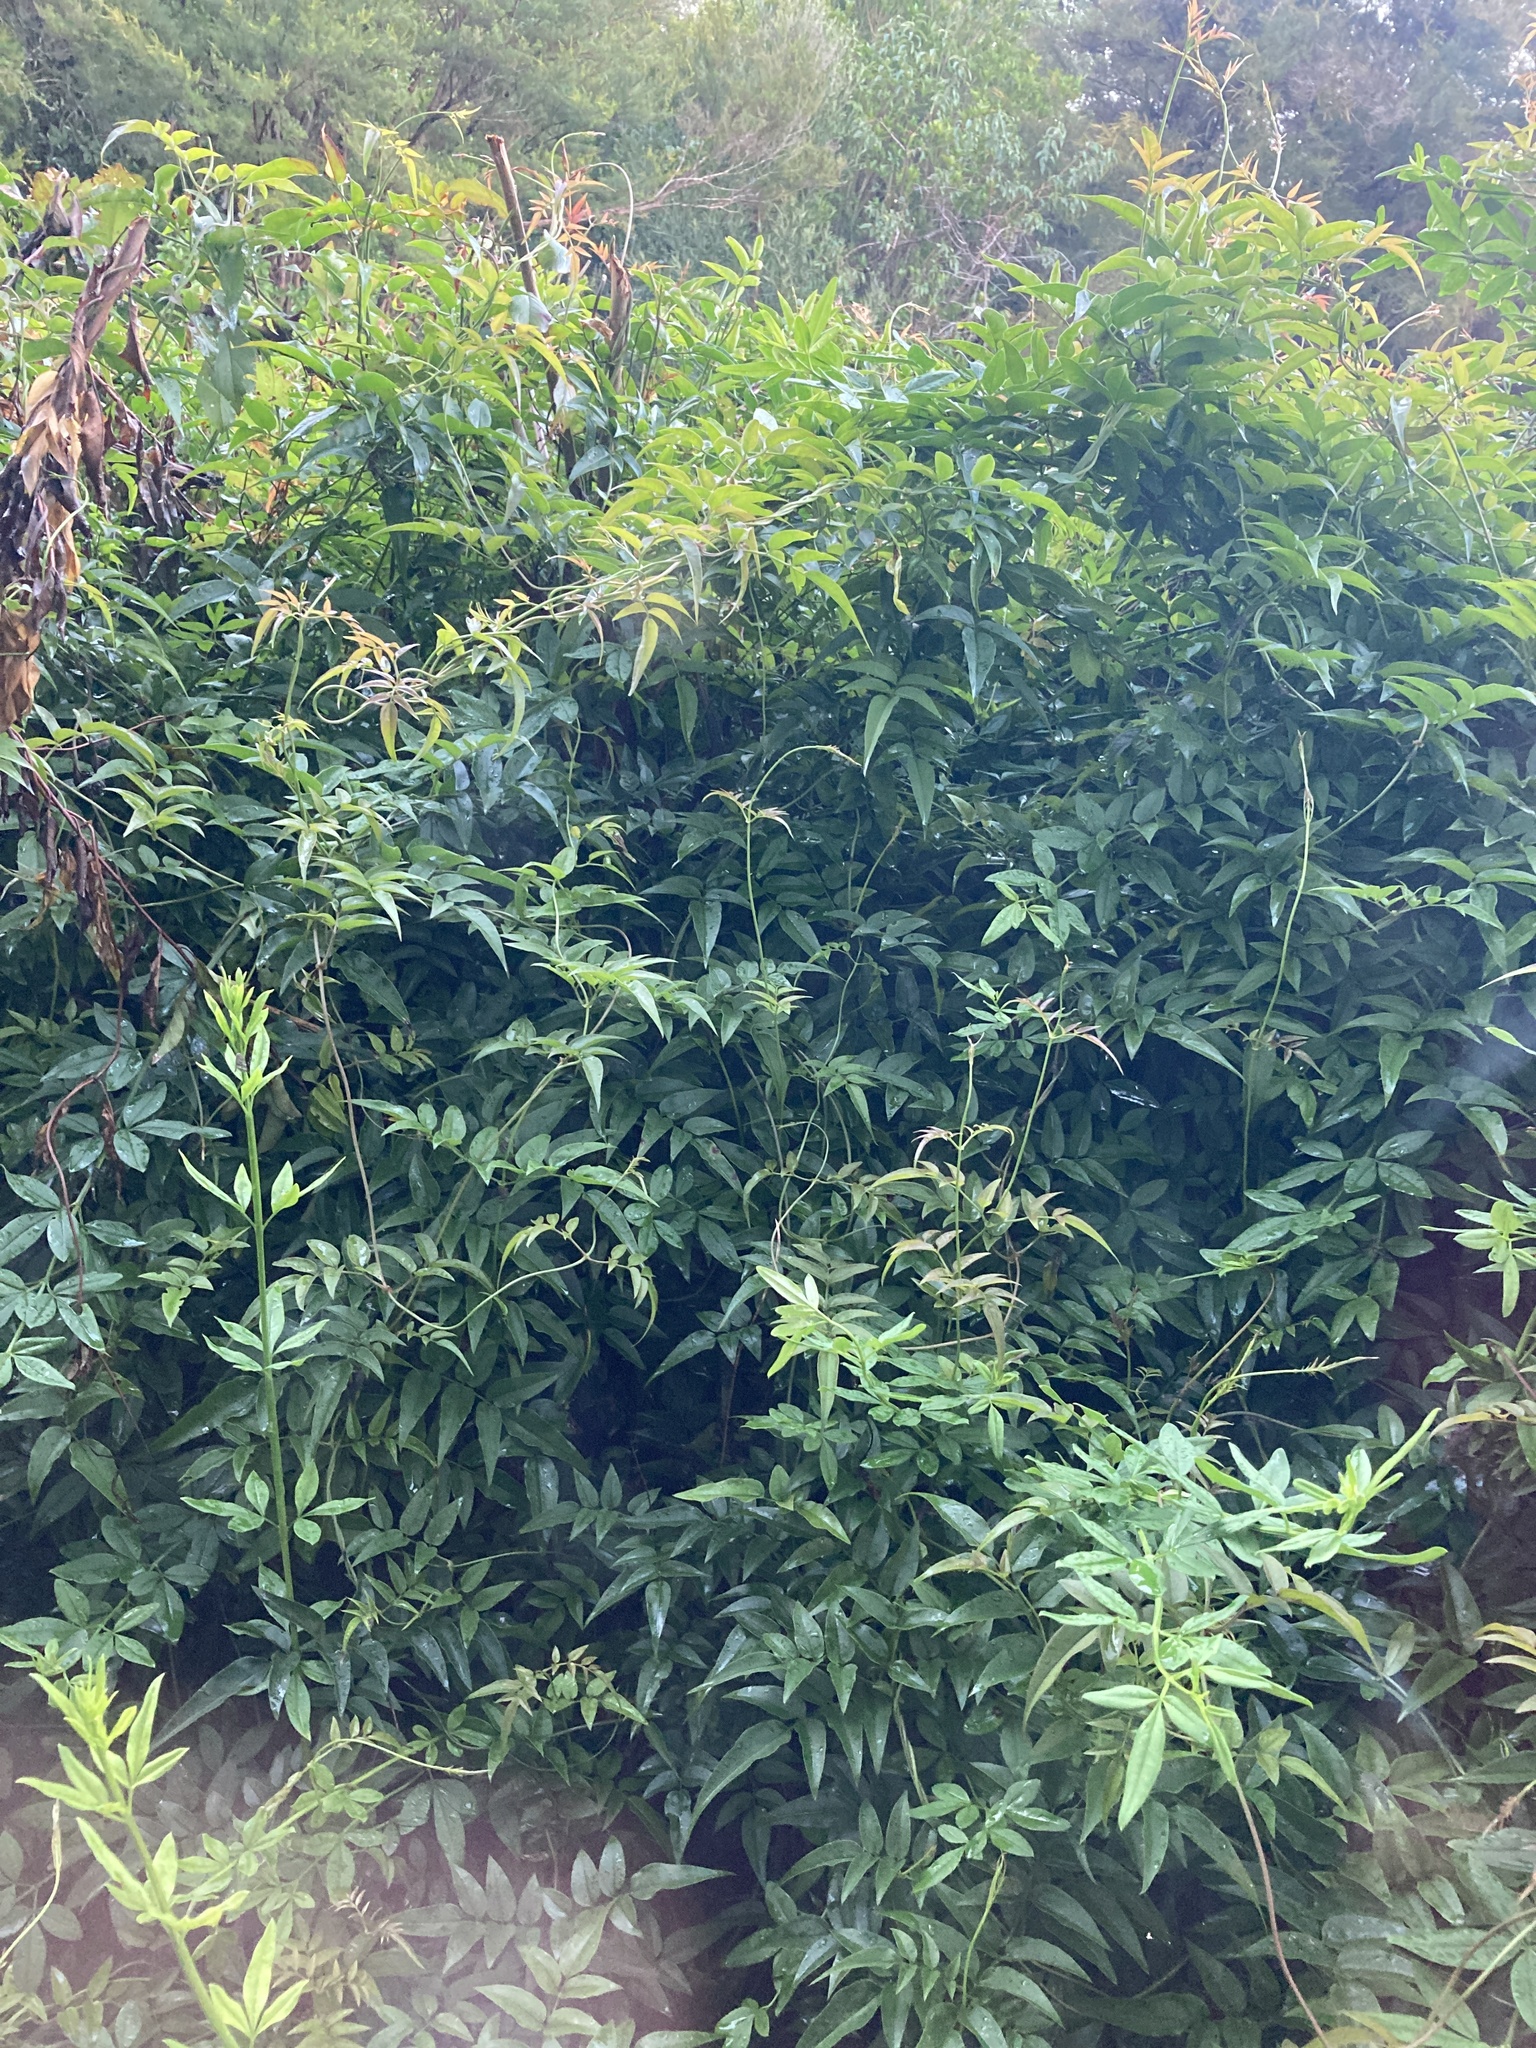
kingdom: Plantae
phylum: Tracheophyta
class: Magnoliopsida
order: Lamiales
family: Oleaceae
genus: Jasminum
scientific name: Jasminum polyanthum
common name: Pink jasmine
